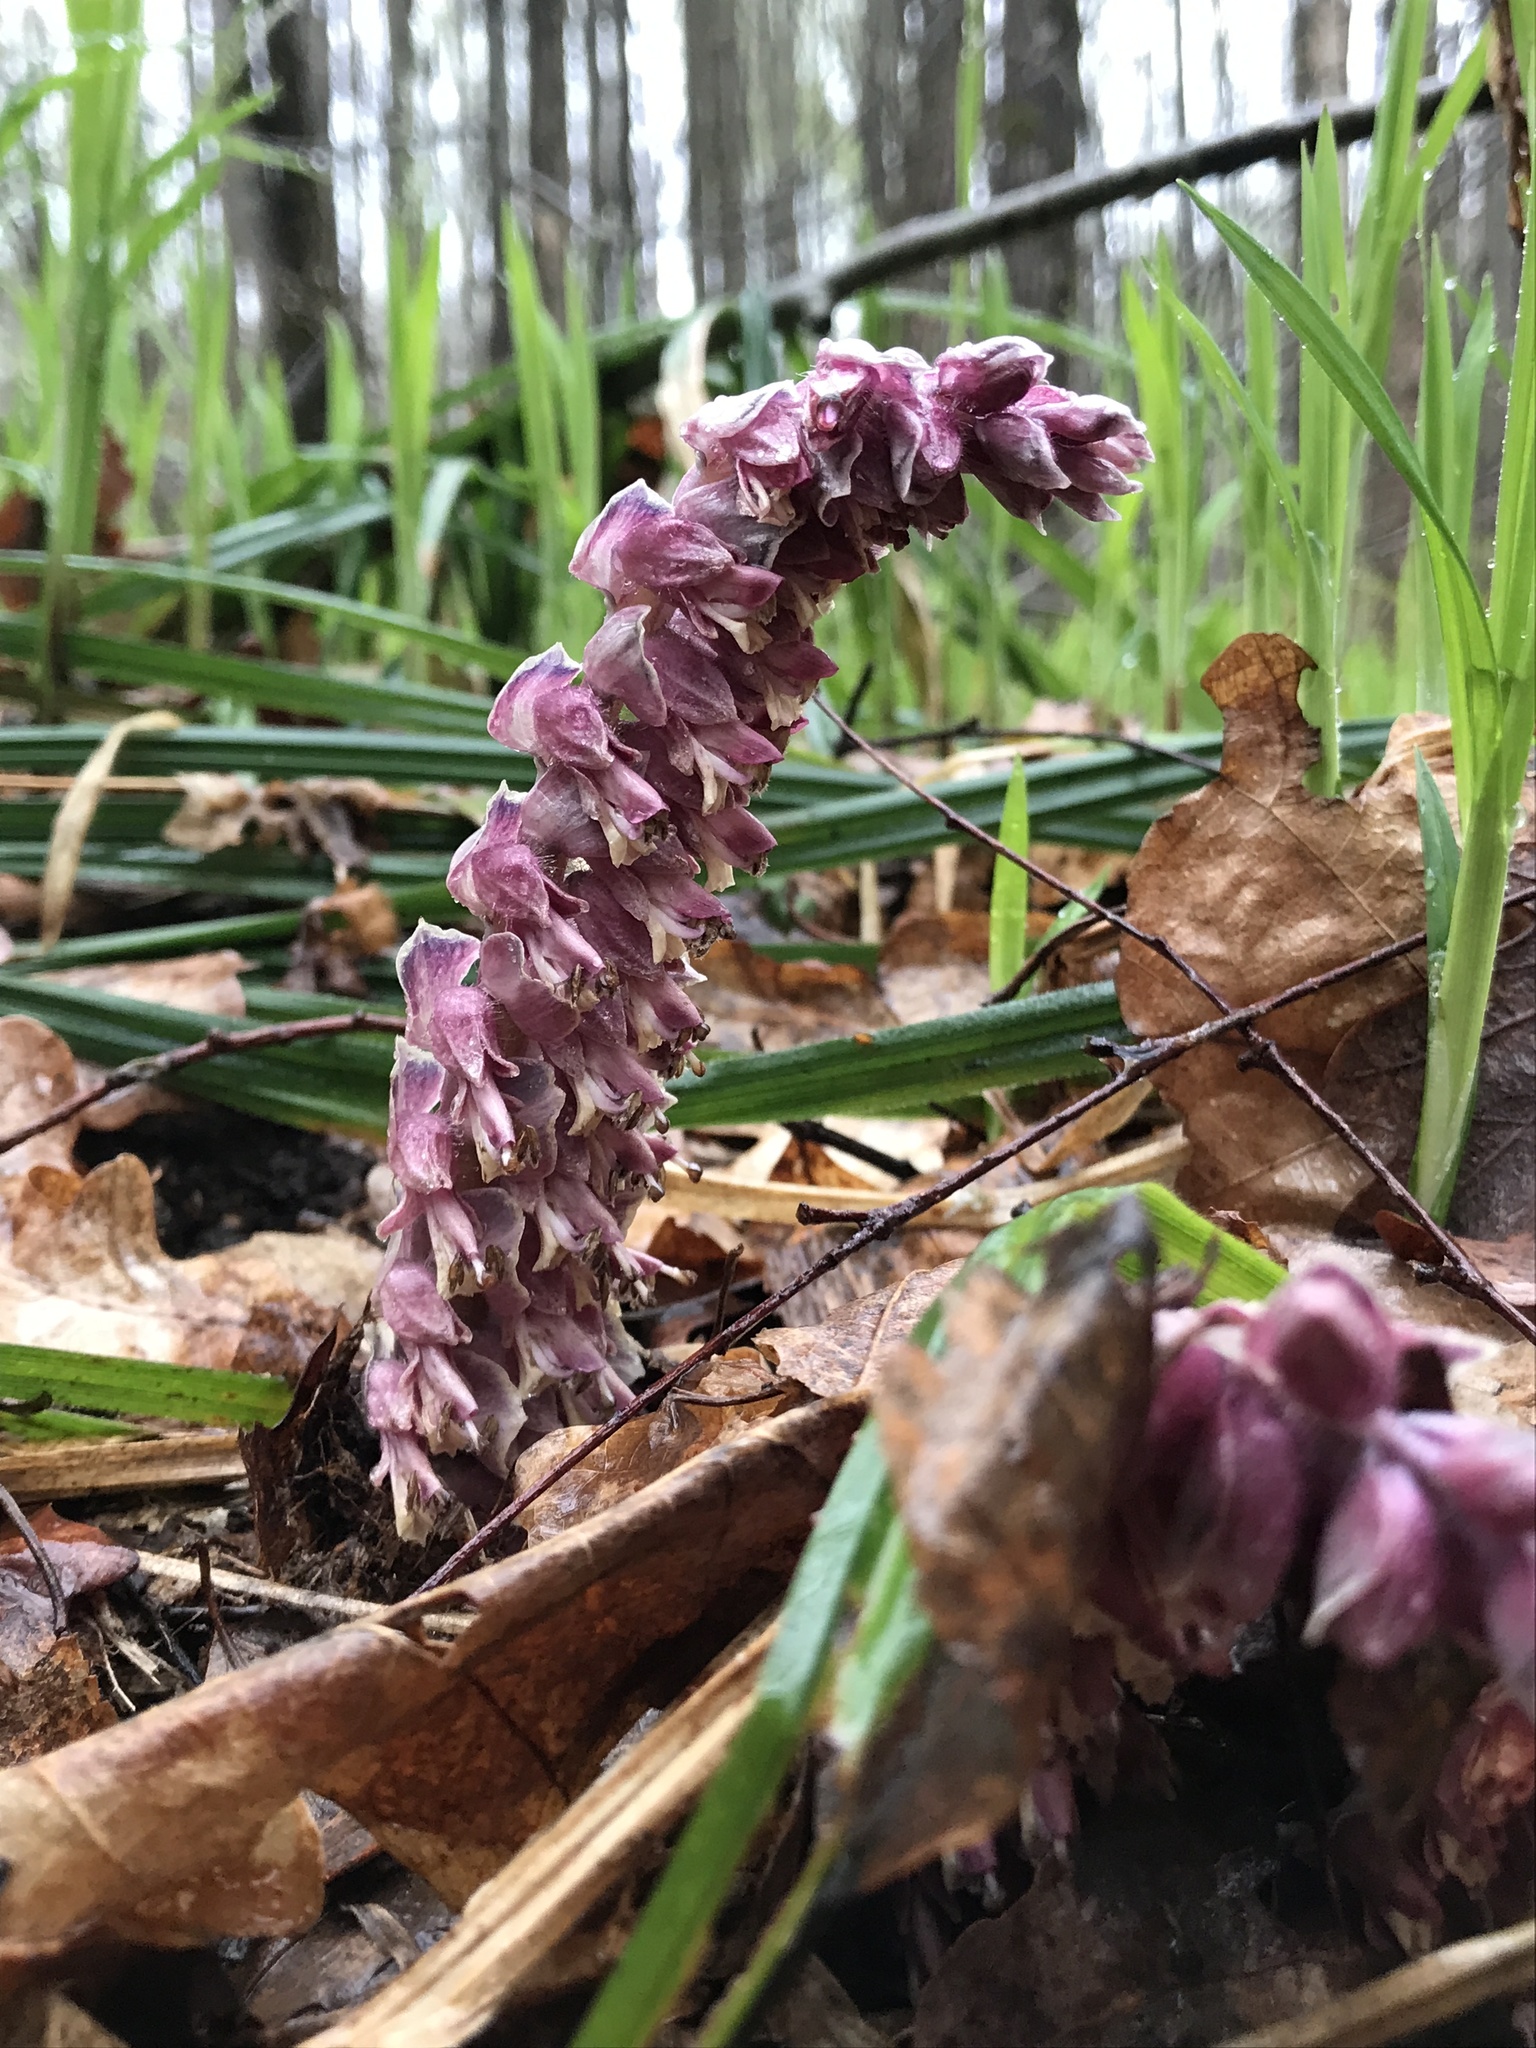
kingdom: Plantae
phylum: Tracheophyta
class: Magnoliopsida
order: Lamiales
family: Orobanchaceae
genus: Lathraea
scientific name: Lathraea squamaria
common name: Toothwort
